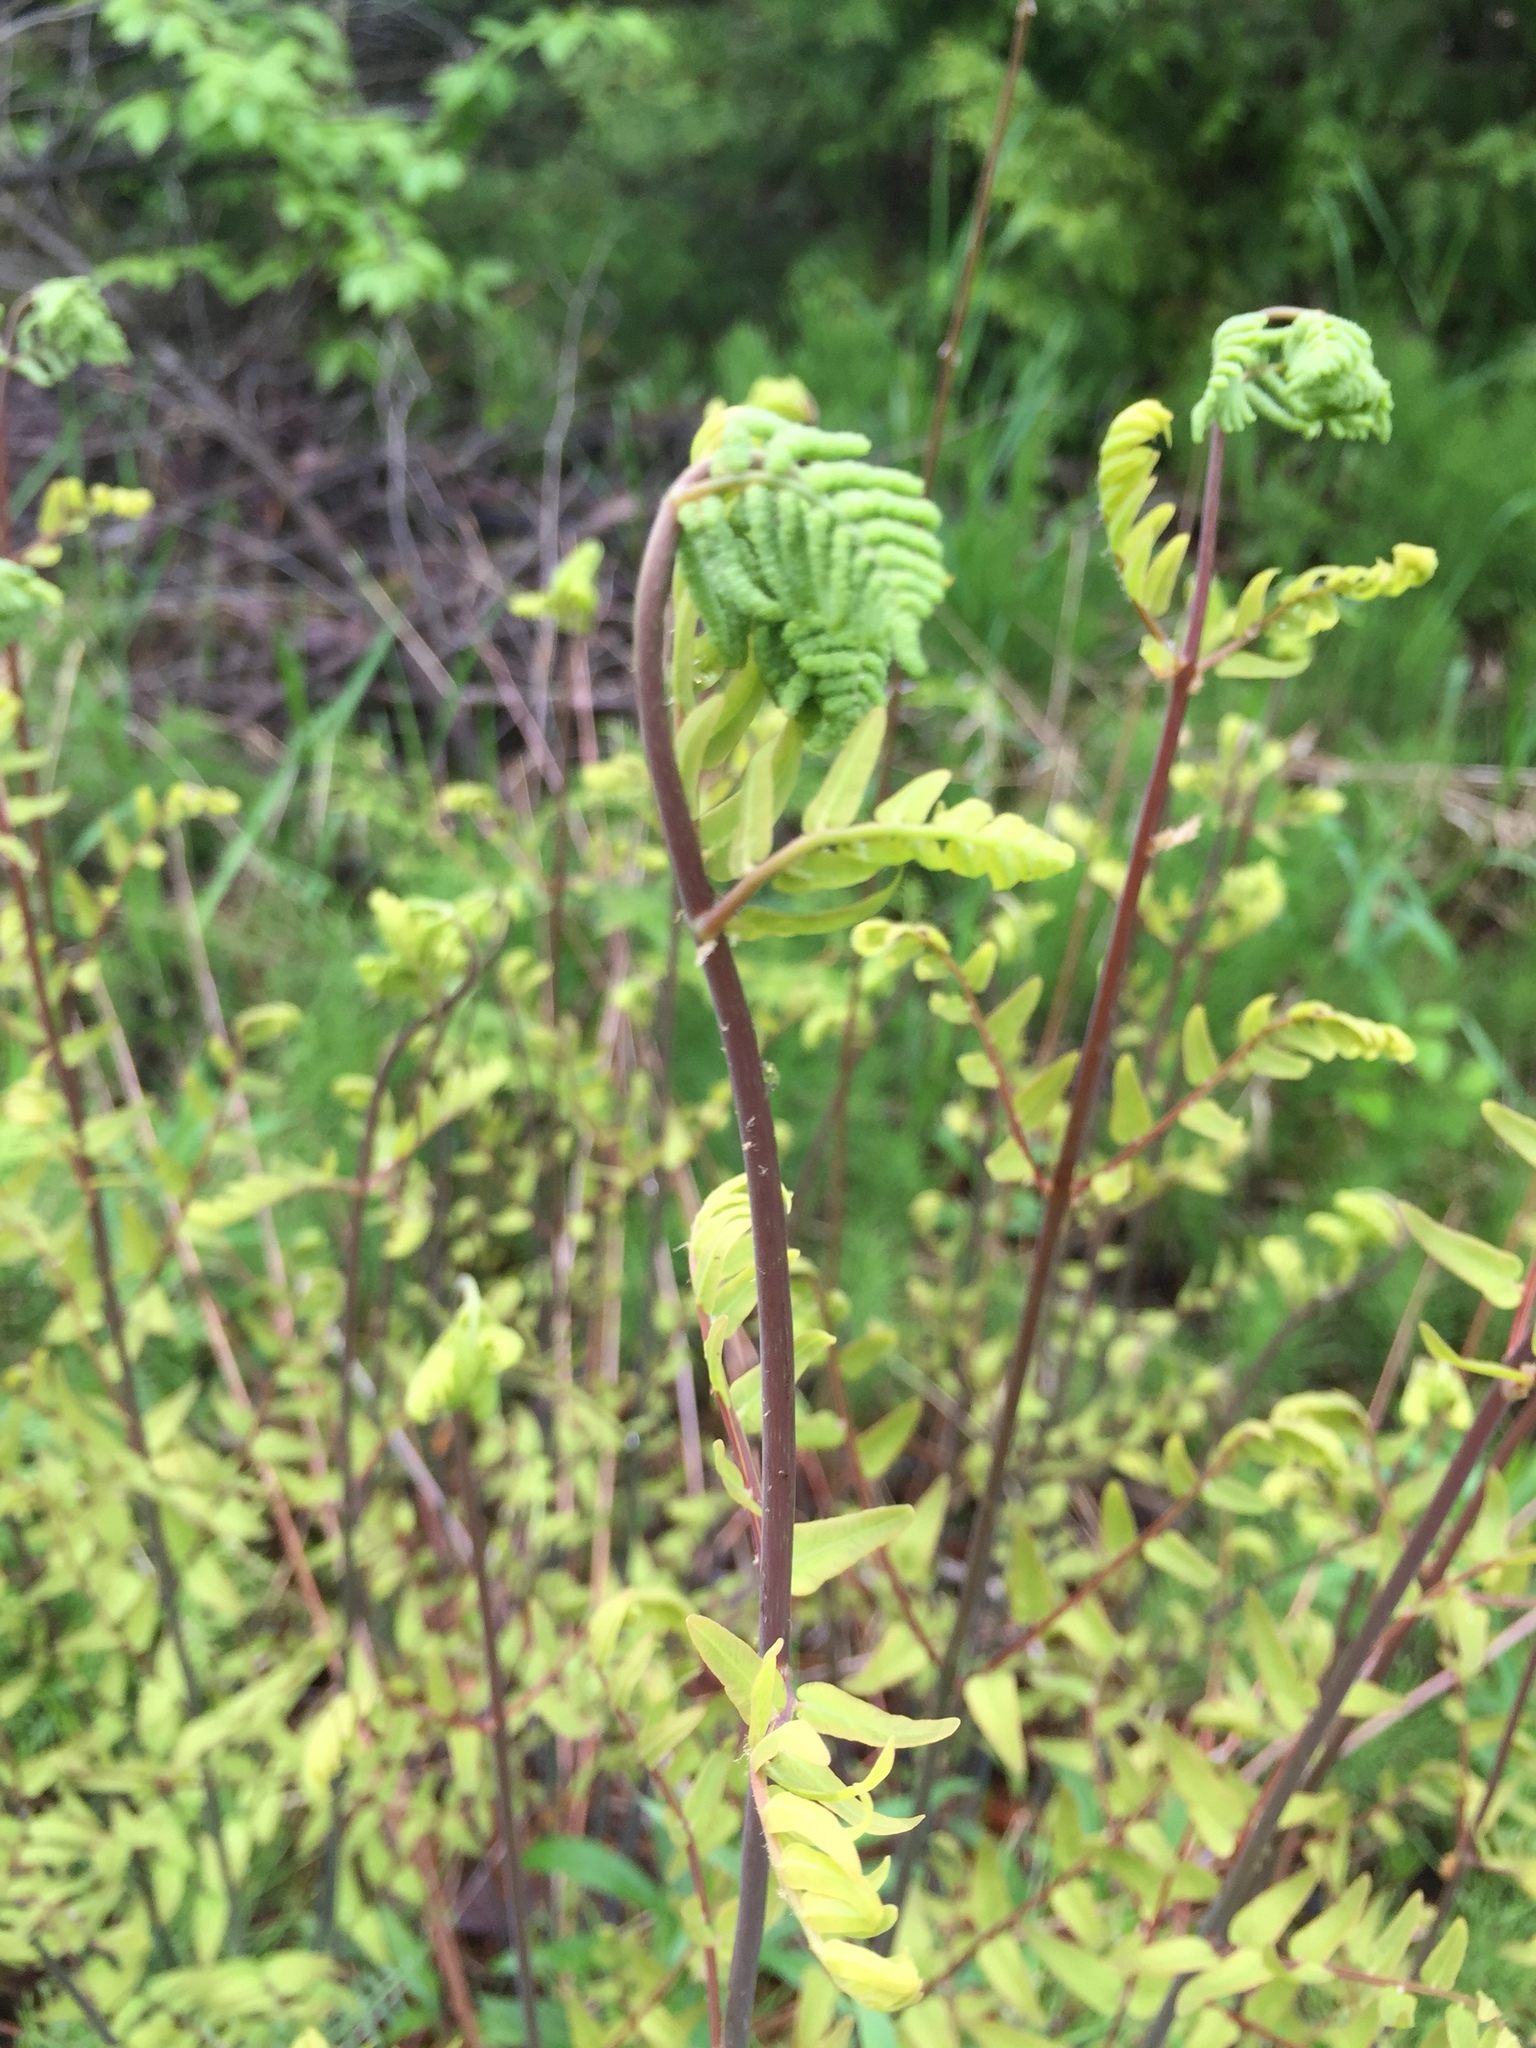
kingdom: Plantae
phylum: Tracheophyta
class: Polypodiopsida
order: Osmundales
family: Osmundaceae
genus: Osmunda
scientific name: Osmunda spectabilis
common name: American royal fern
